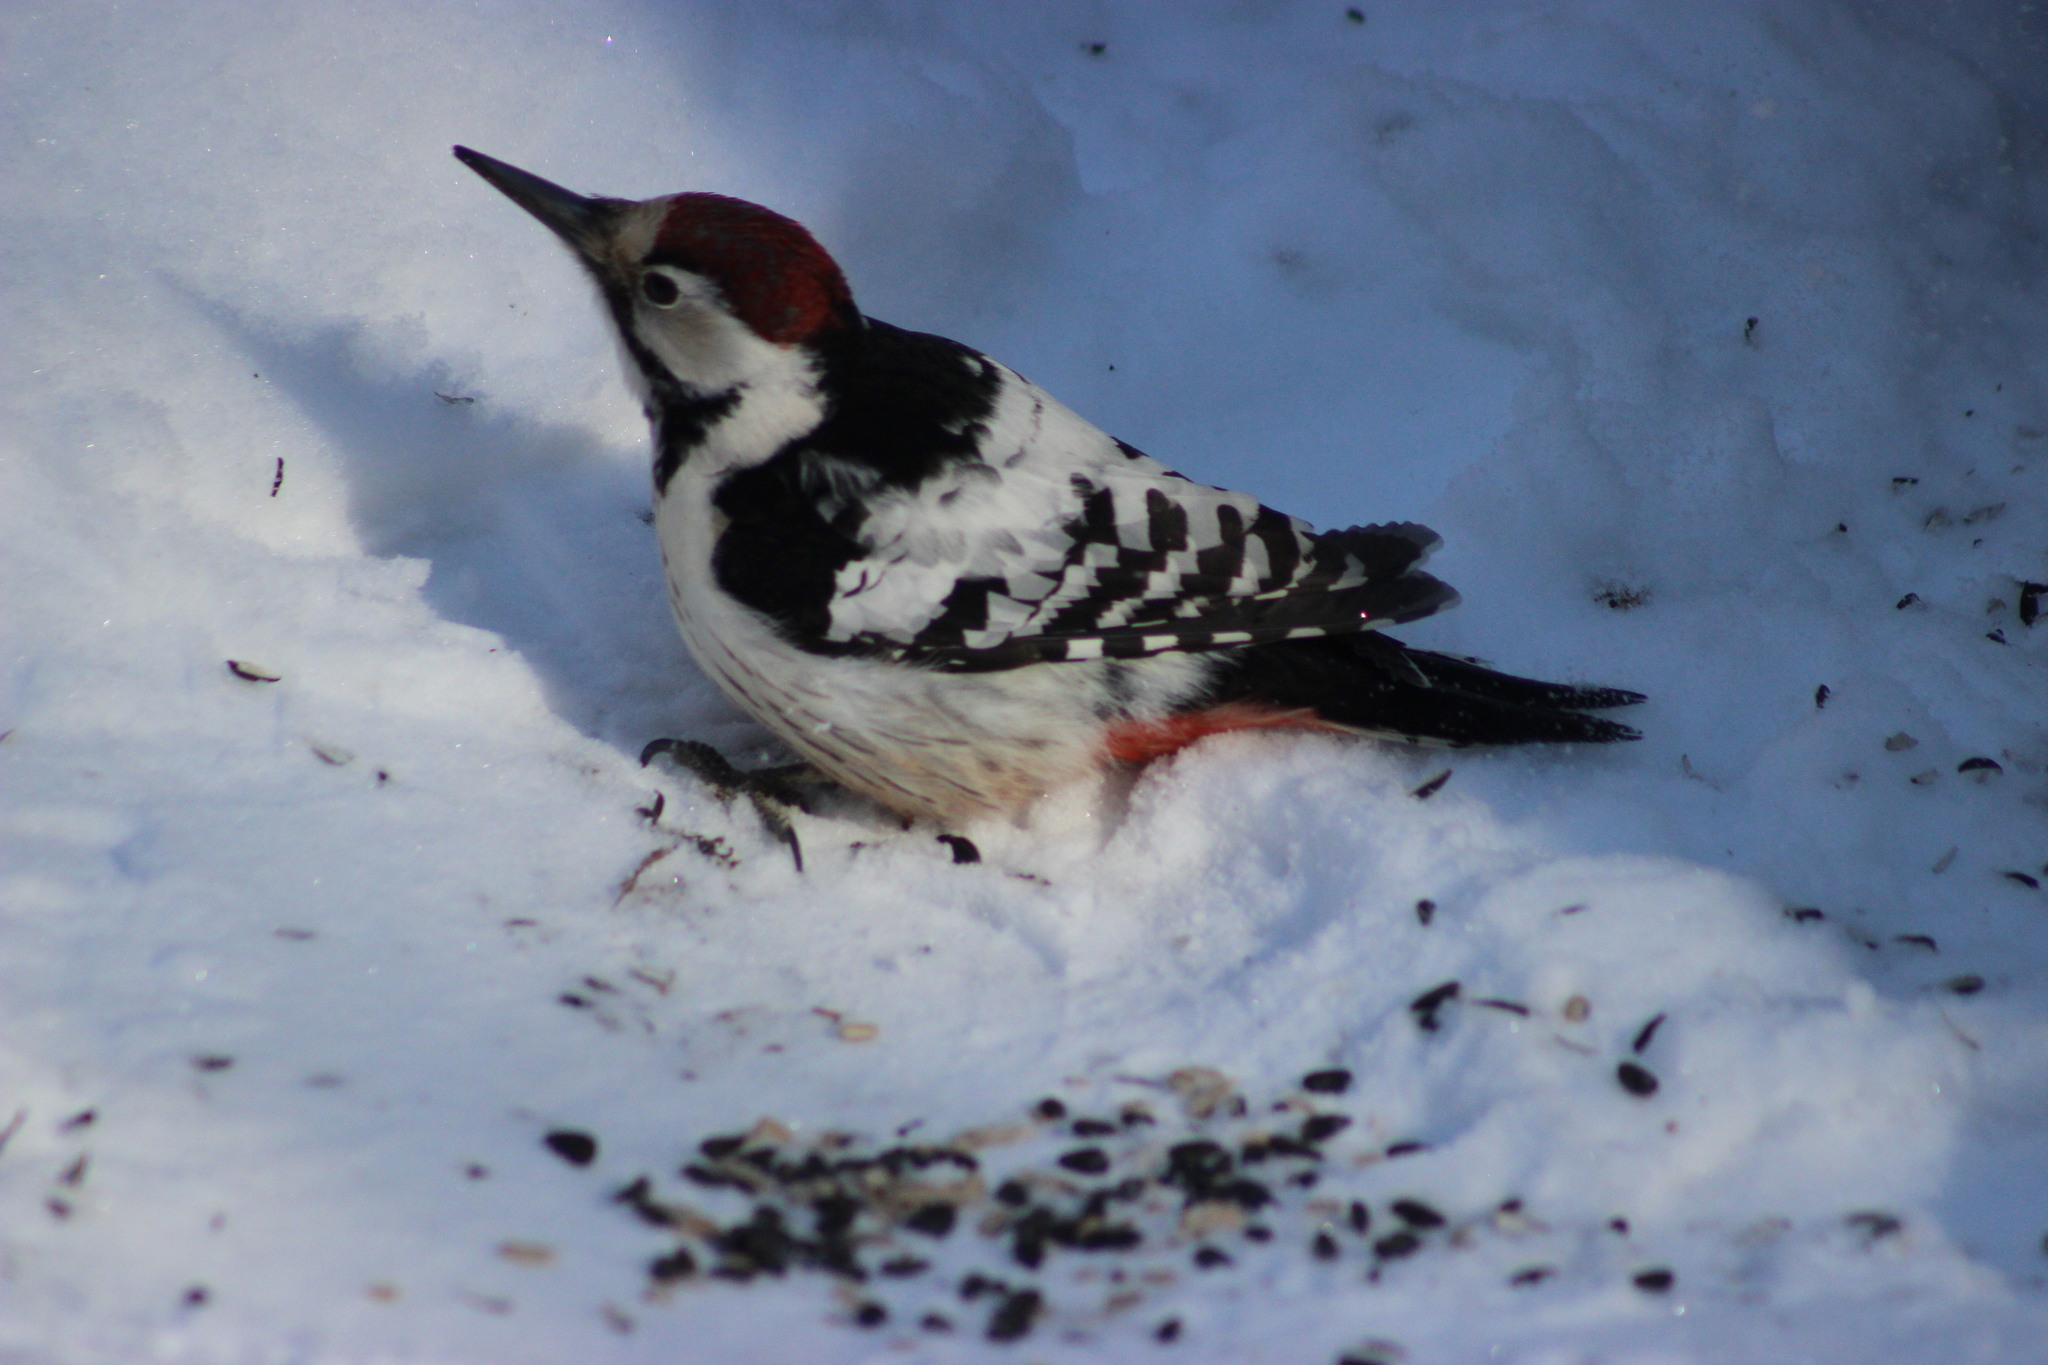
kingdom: Animalia
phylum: Chordata
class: Aves
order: Piciformes
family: Picidae
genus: Dendrocopos
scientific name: Dendrocopos leucotos
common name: White-backed woodpecker
